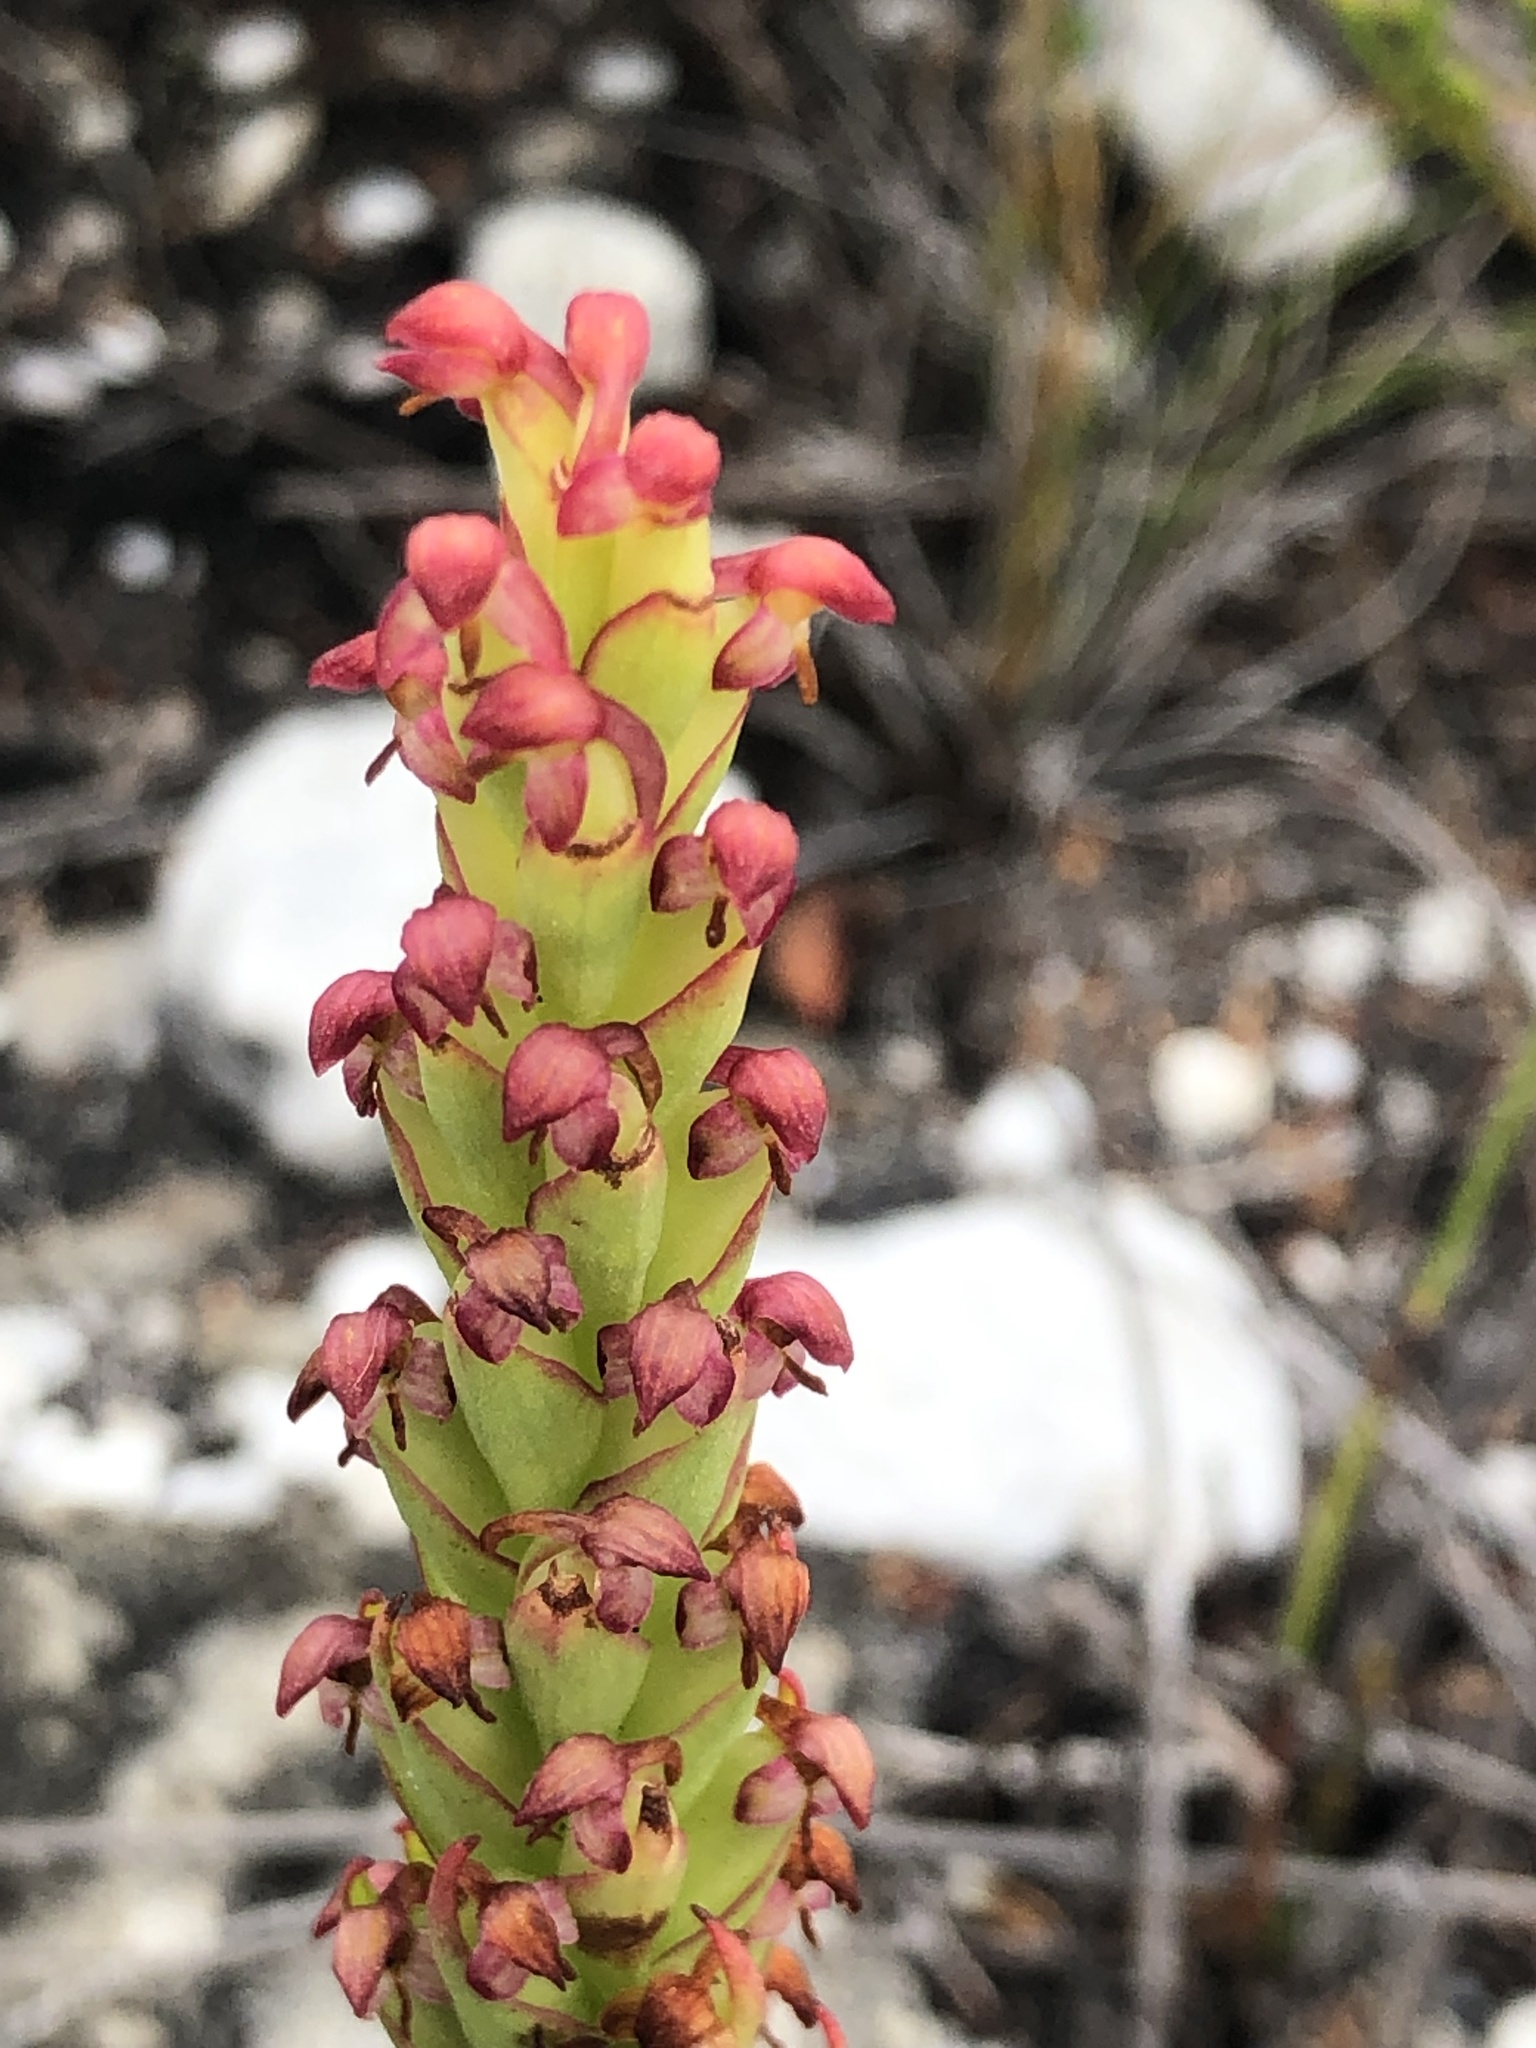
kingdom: Plantae
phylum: Tracheophyta
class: Liliopsida
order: Asparagales
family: Orchidaceae
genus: Disa
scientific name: Disa bracteata
